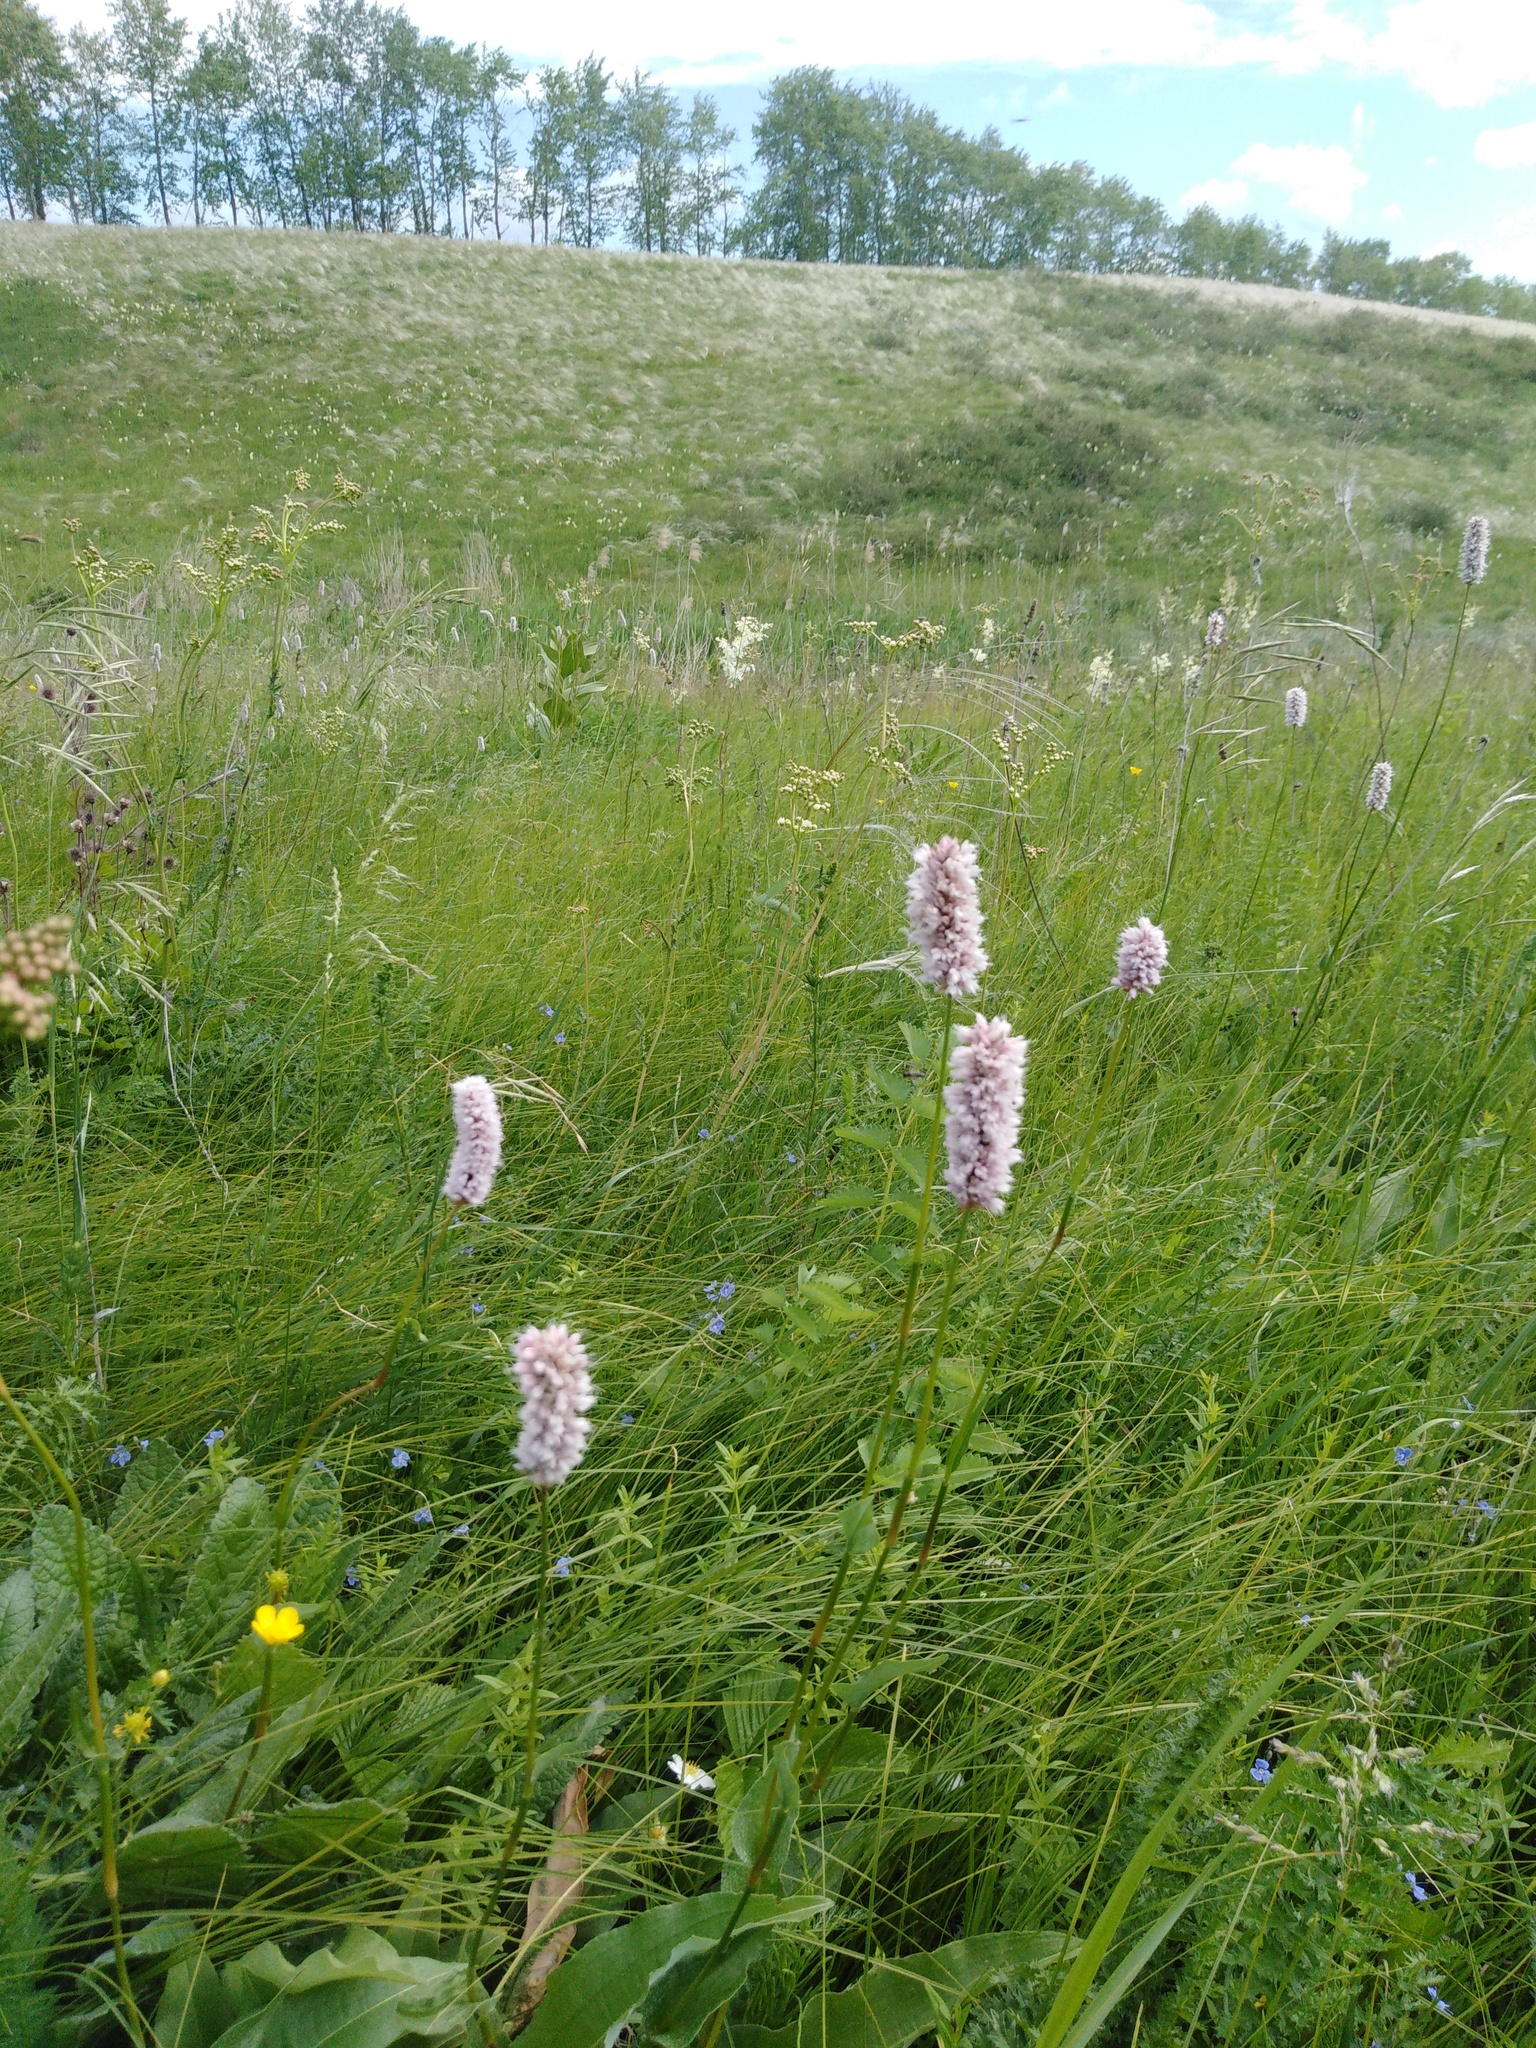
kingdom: Plantae
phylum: Tracheophyta
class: Magnoliopsida
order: Caryophyllales
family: Polygonaceae
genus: Bistorta
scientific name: Bistorta officinalis
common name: Common bistort
